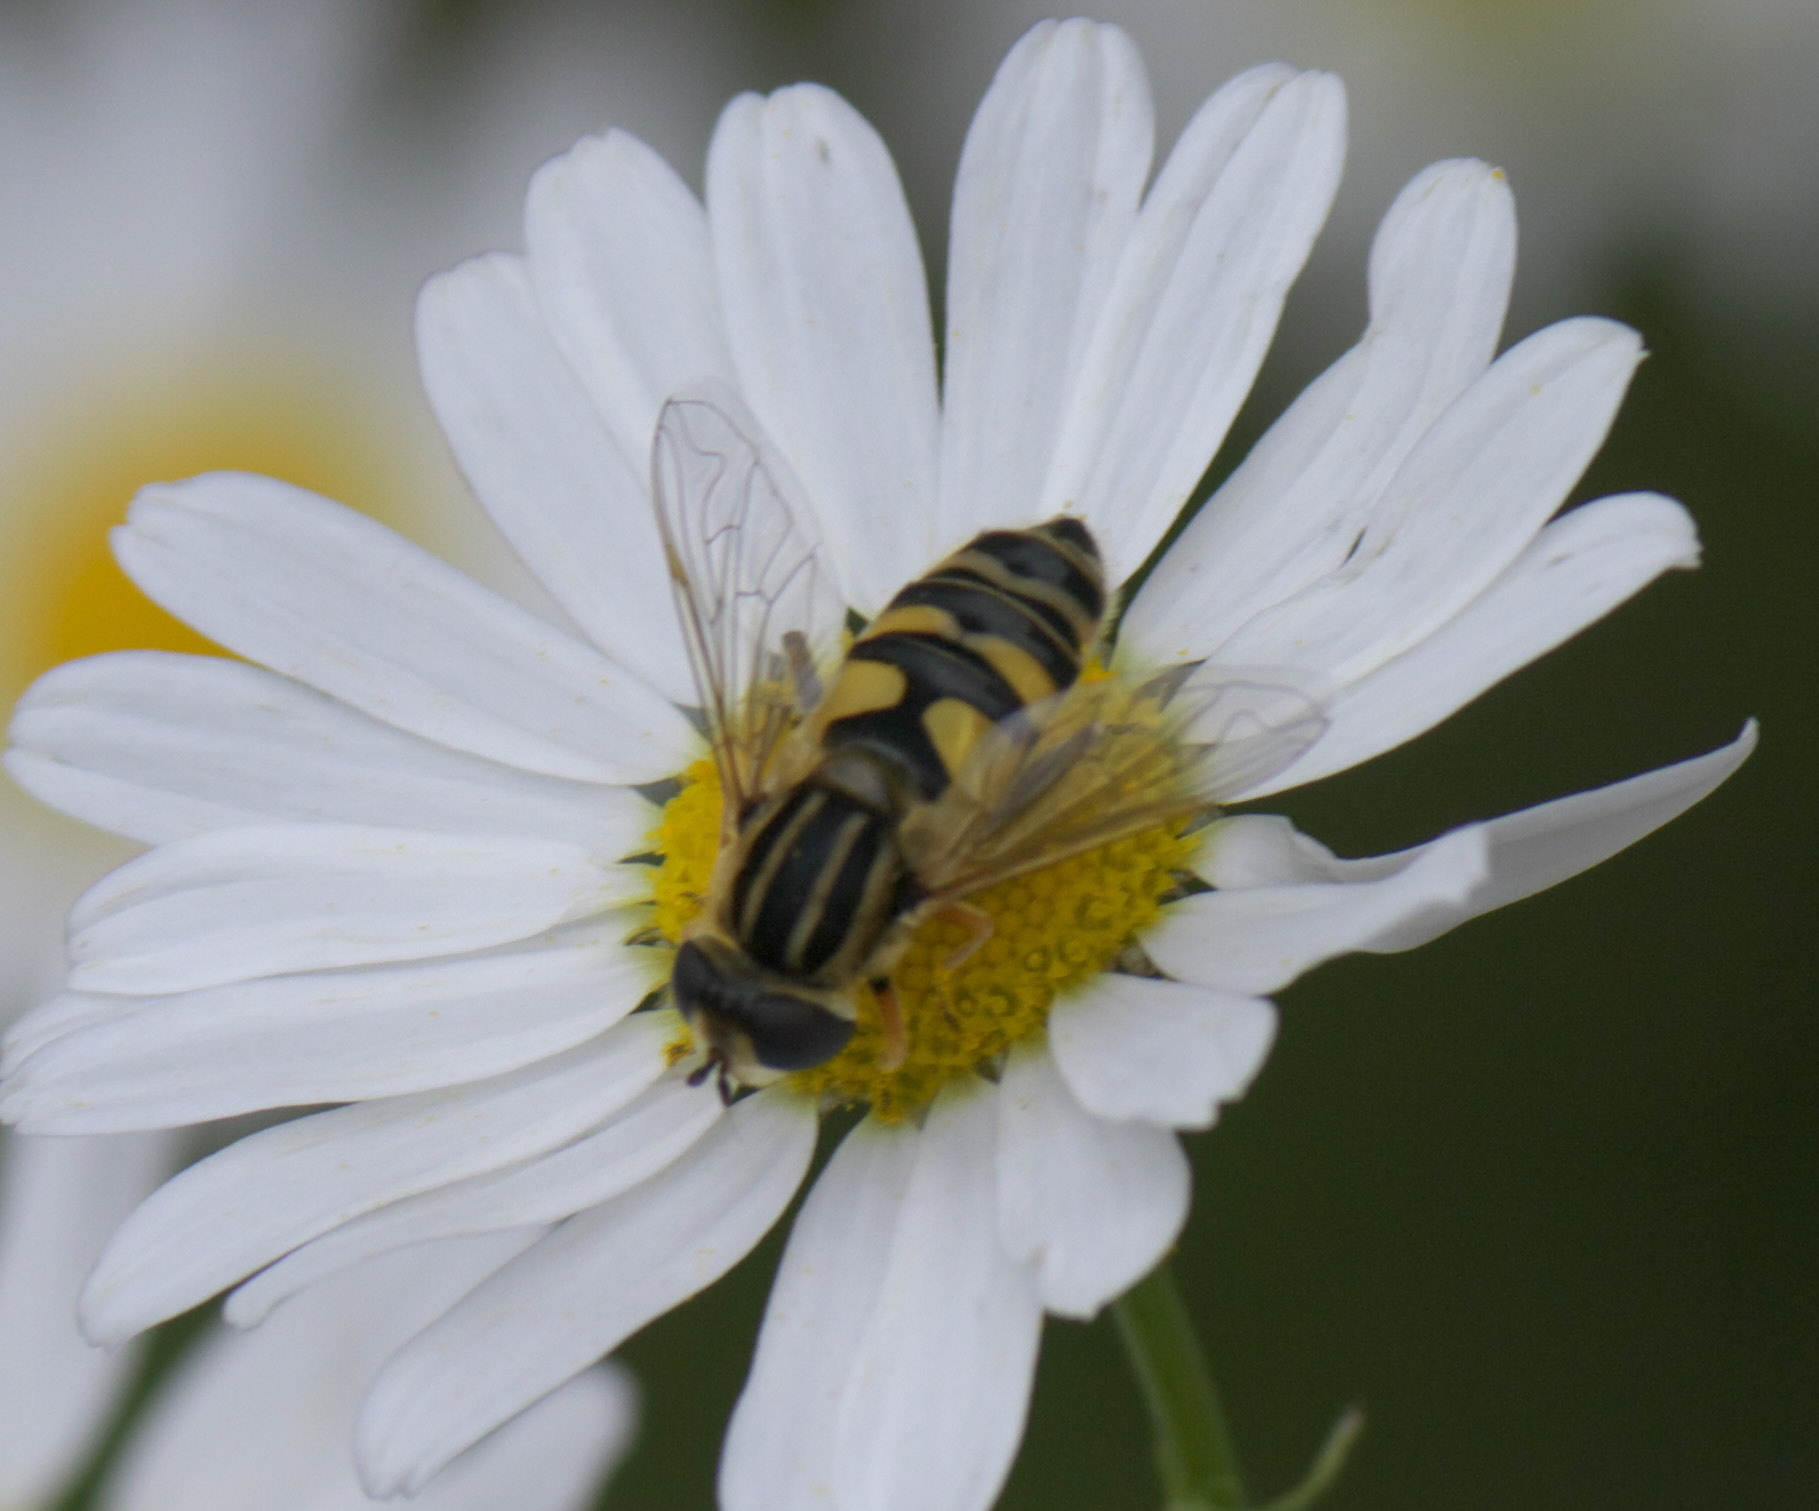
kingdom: Animalia
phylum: Arthropoda
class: Insecta
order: Diptera
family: Syrphidae
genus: Helophilus
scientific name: Helophilus latifrons
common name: Broad-headed marsh fly
